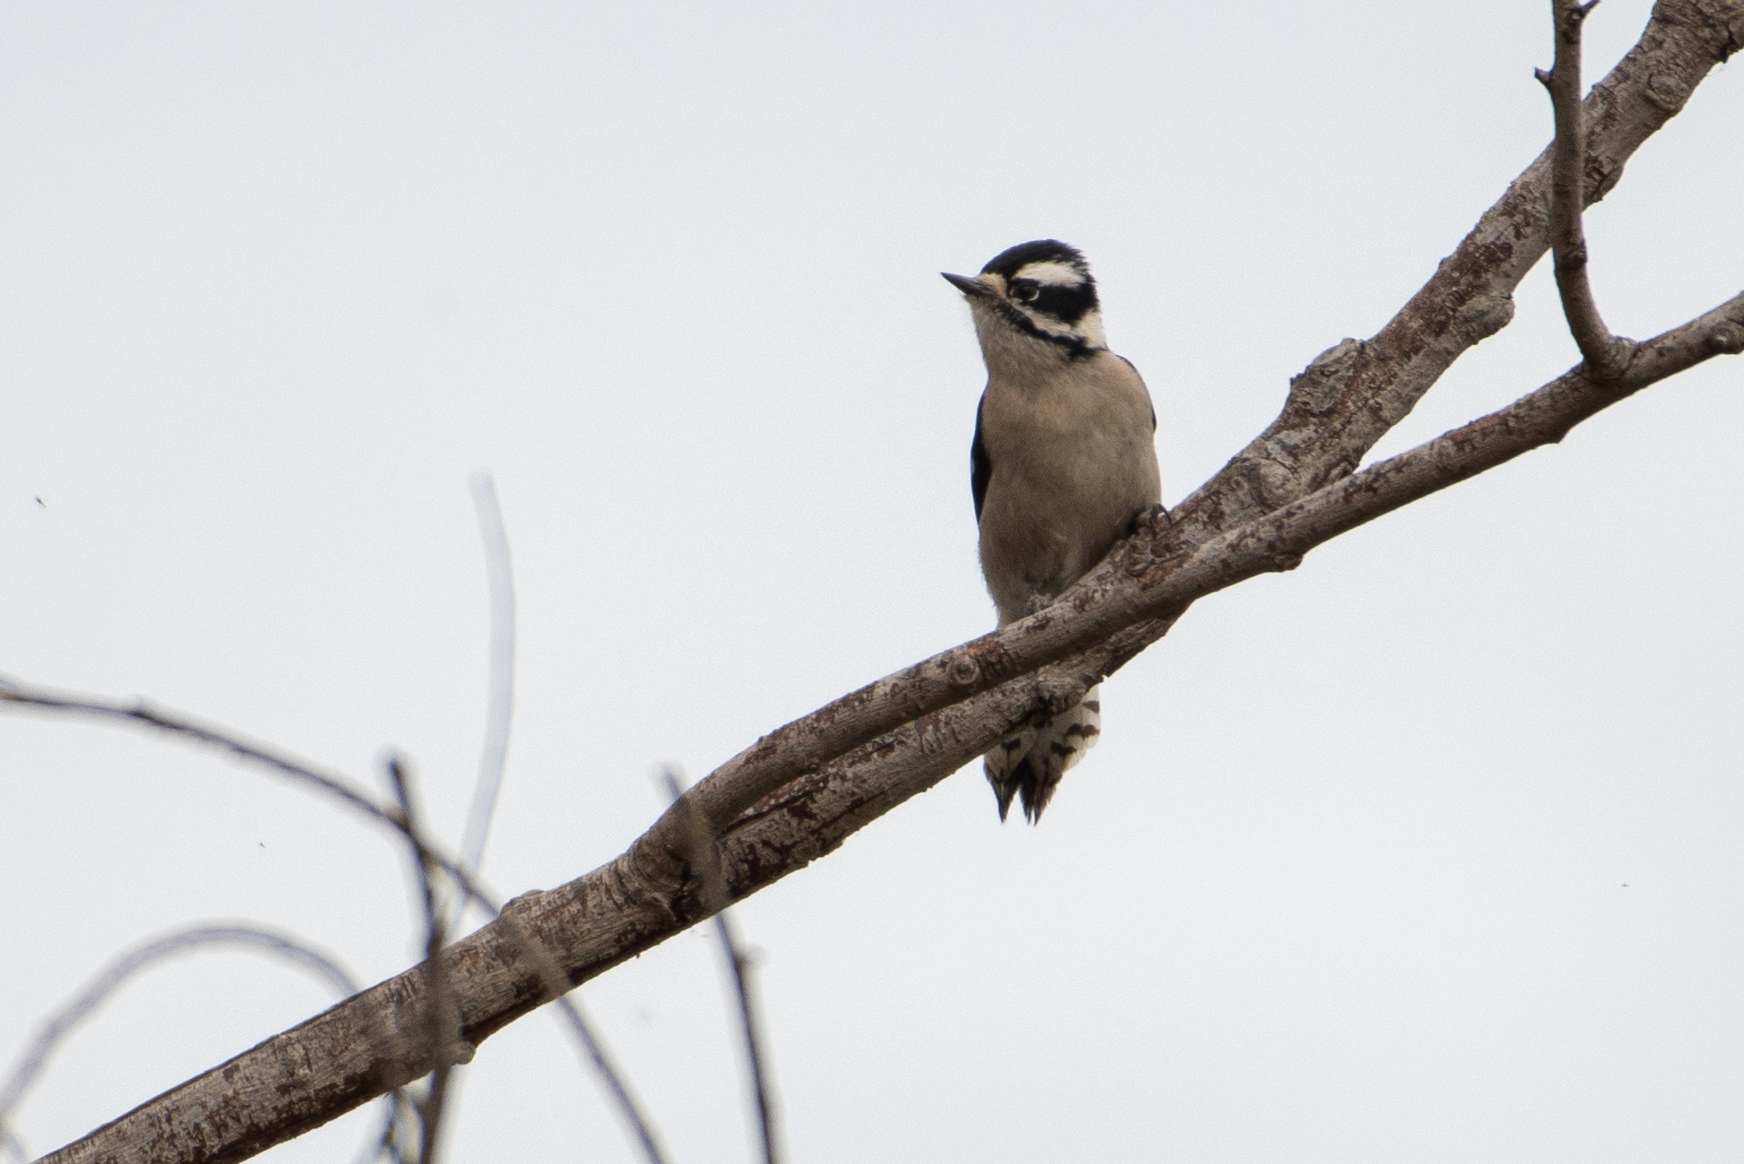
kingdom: Animalia
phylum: Chordata
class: Aves
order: Piciformes
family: Picidae
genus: Dryobates
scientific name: Dryobates pubescens
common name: Downy woodpecker
